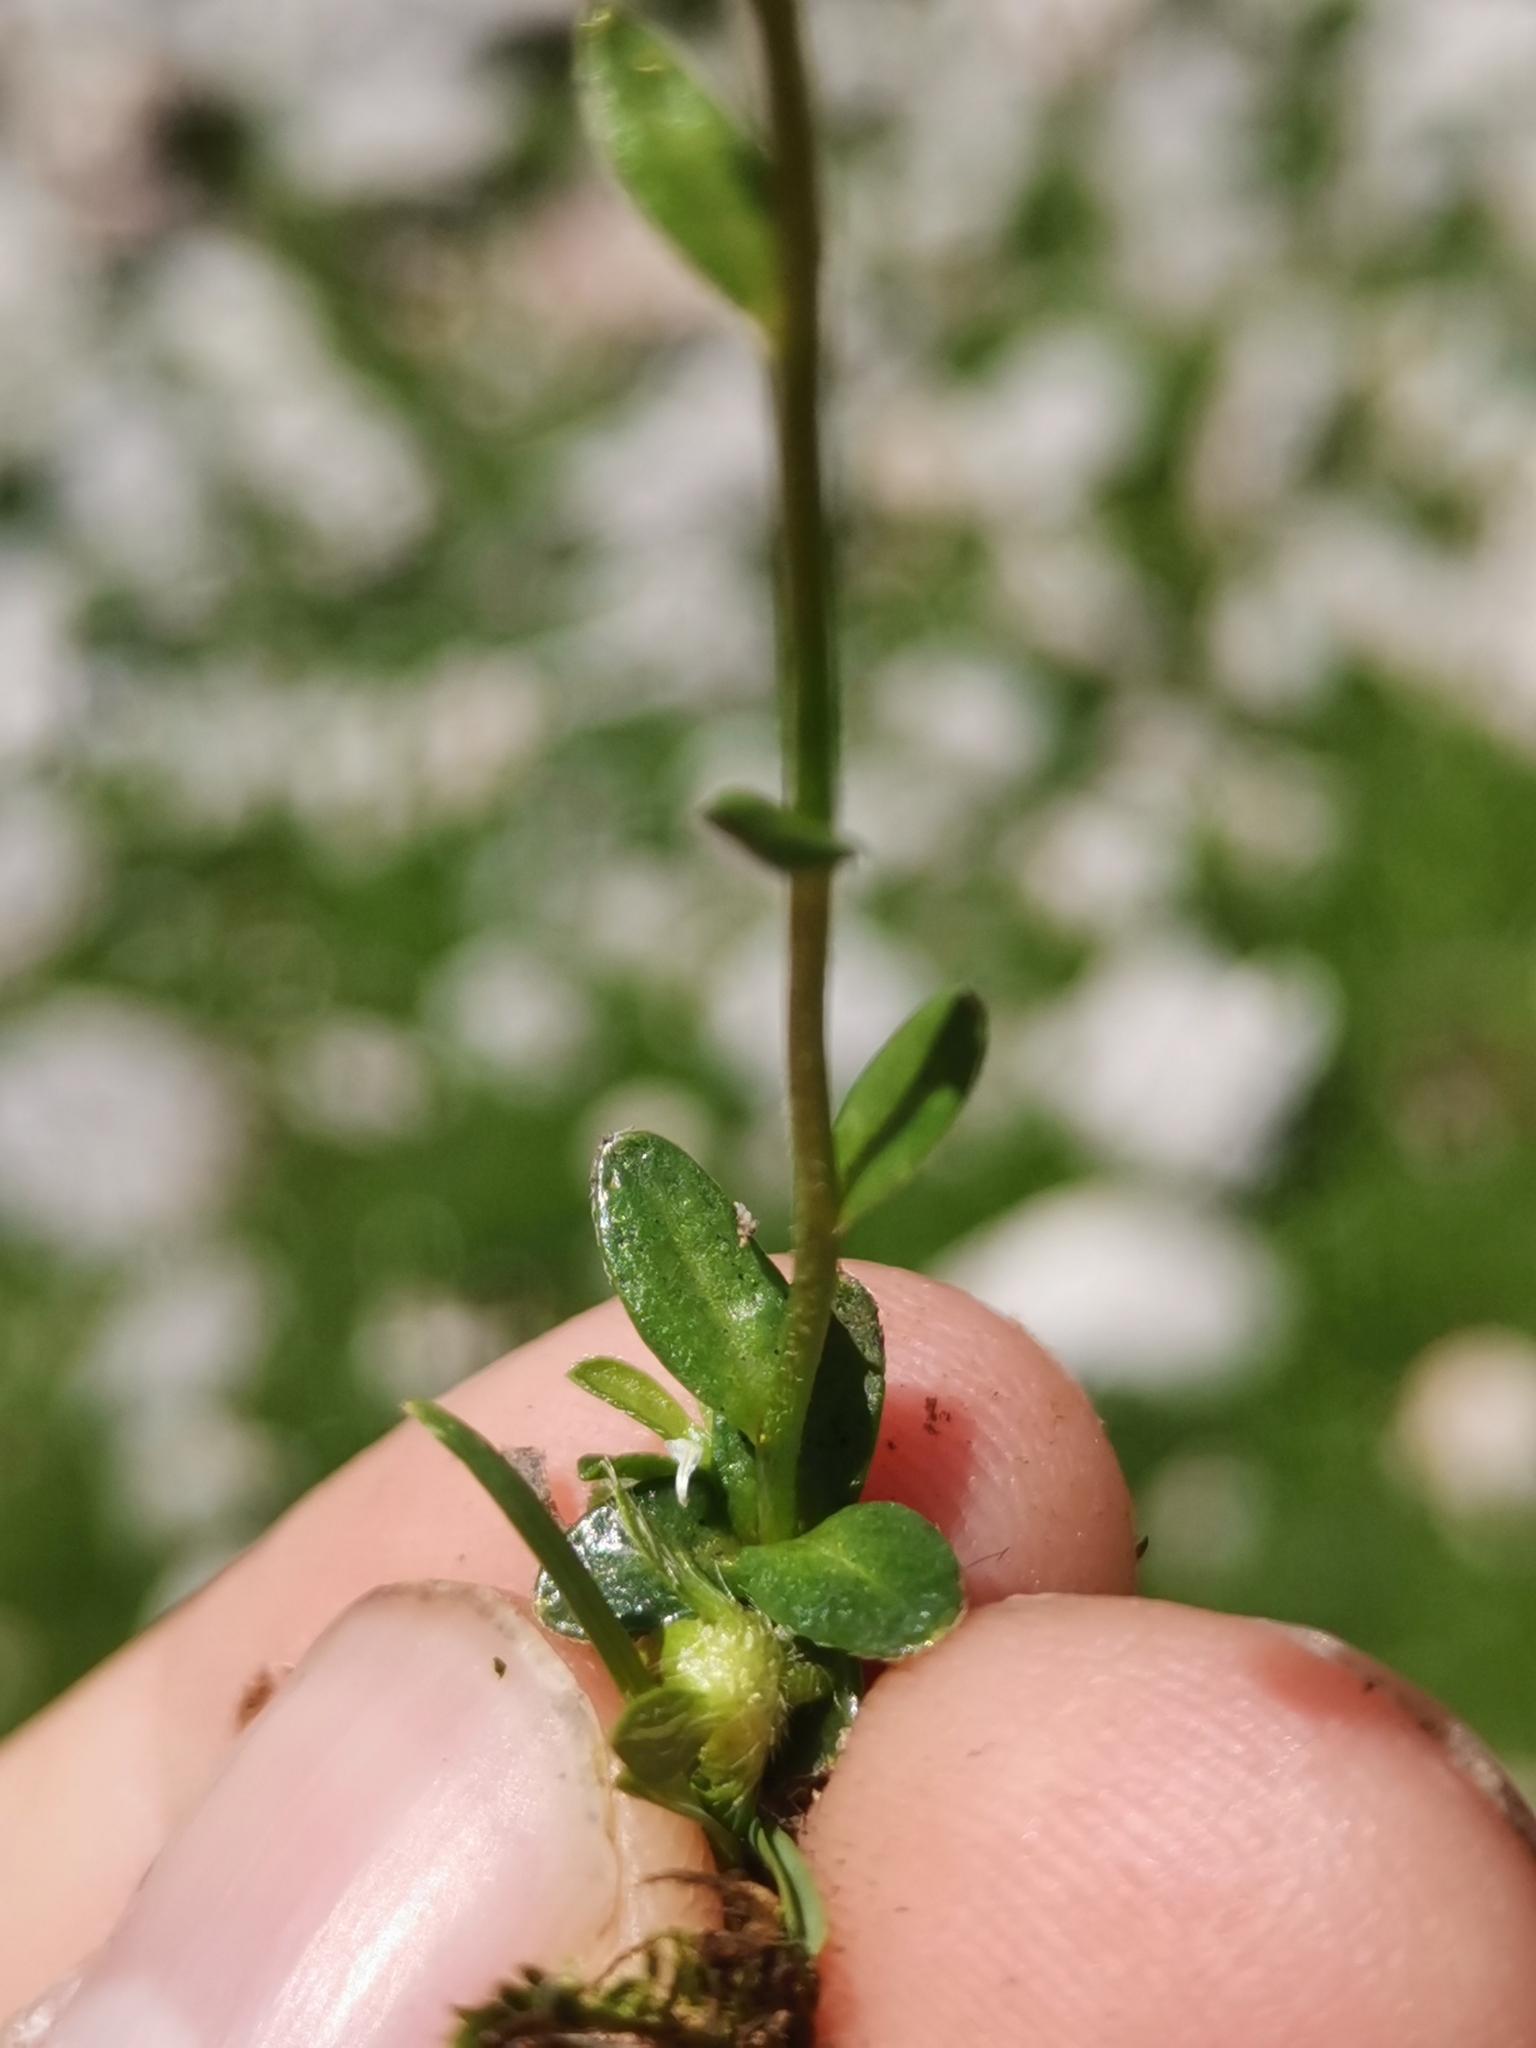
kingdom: Plantae
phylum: Tracheophyta
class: Magnoliopsida
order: Brassicales
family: Brassicaceae
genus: Arabis
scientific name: Arabis vochinensis
